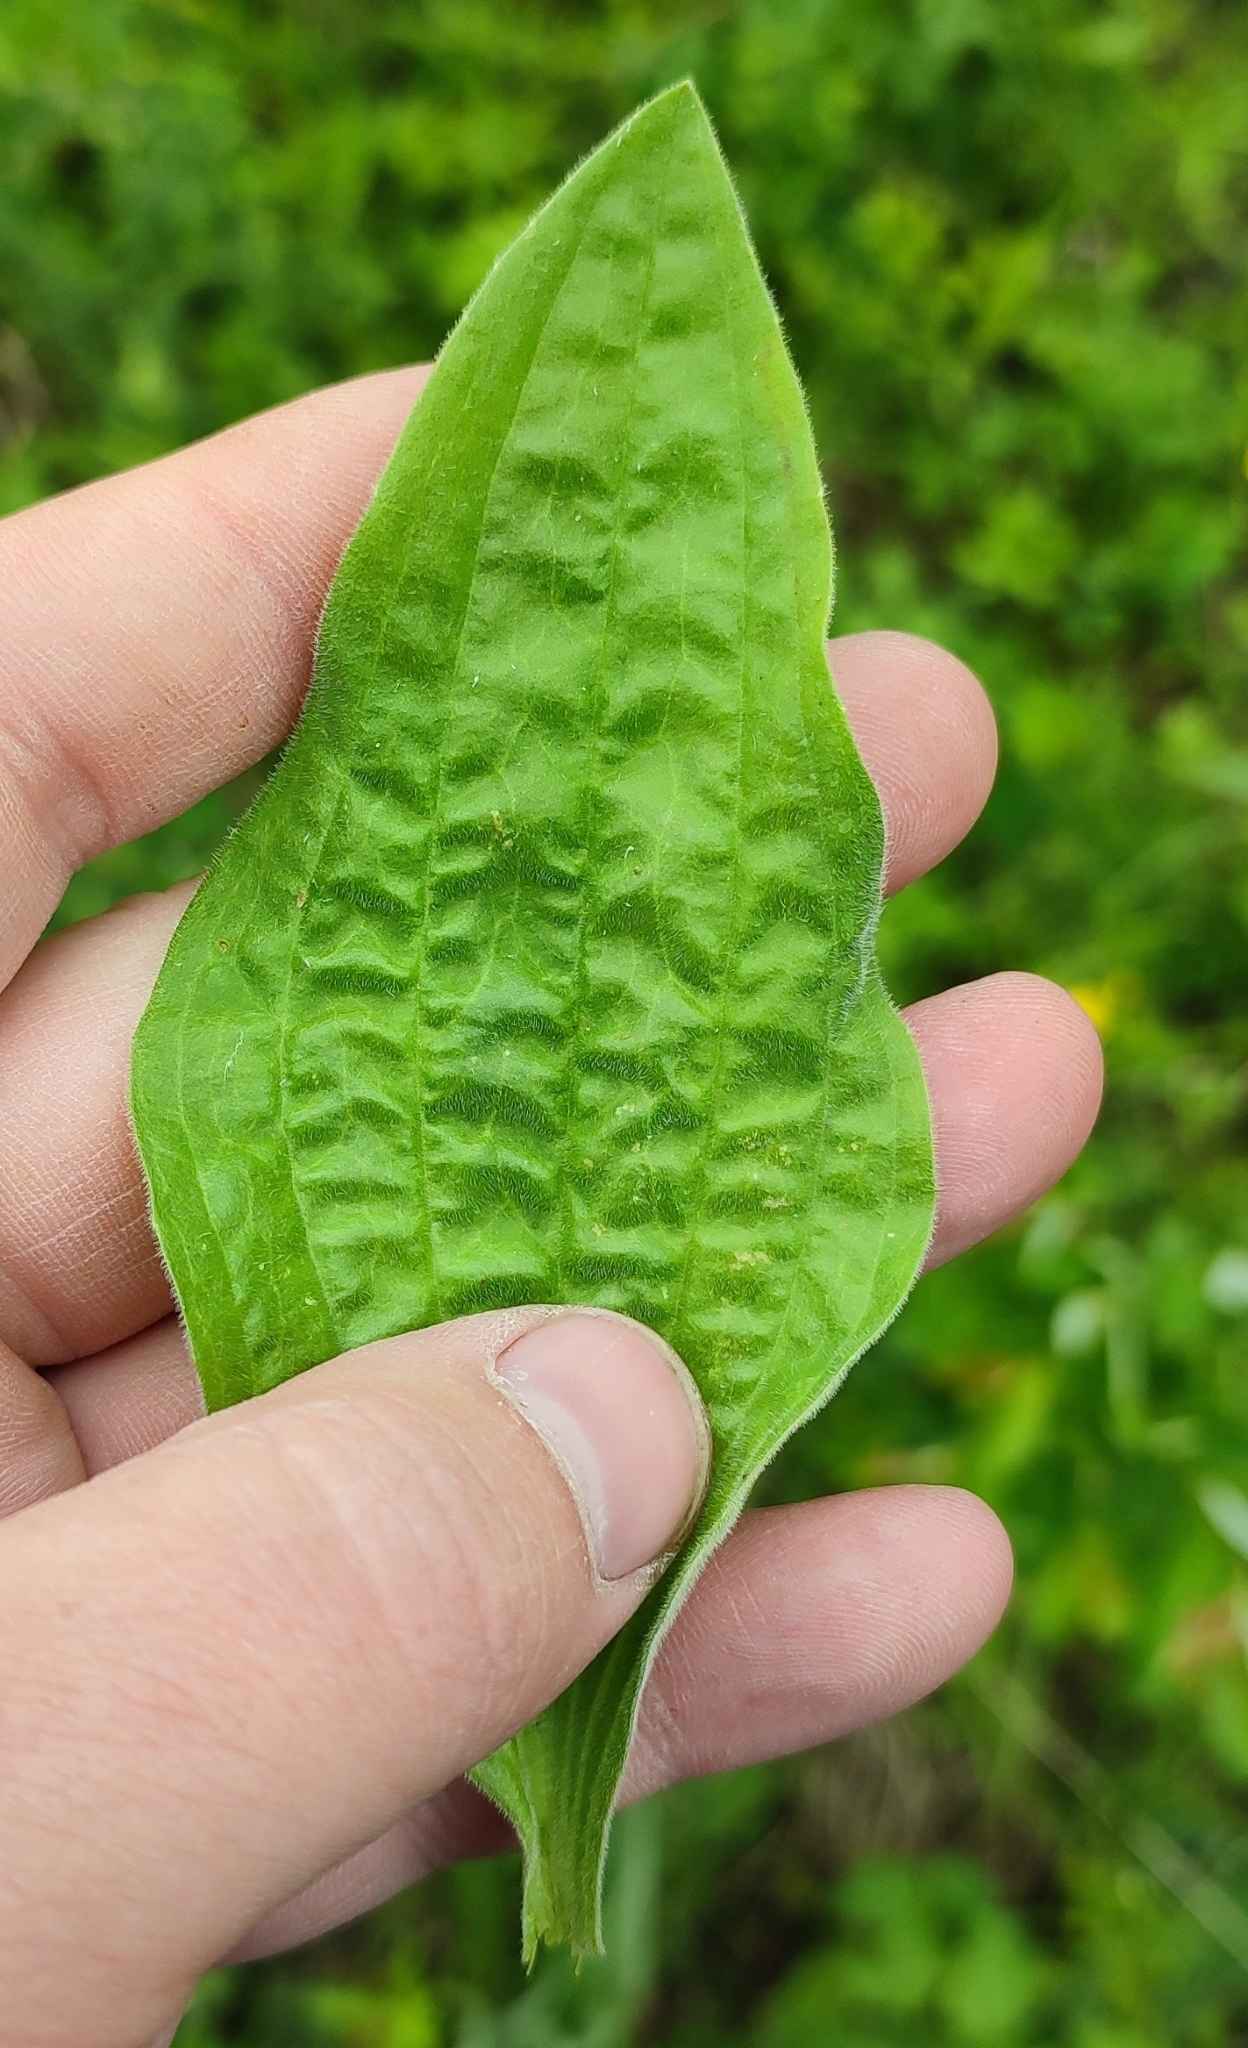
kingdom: Plantae
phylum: Tracheophyta
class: Magnoliopsida
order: Lamiales
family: Plantaginaceae
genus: Plantago
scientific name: Plantago urvillei
